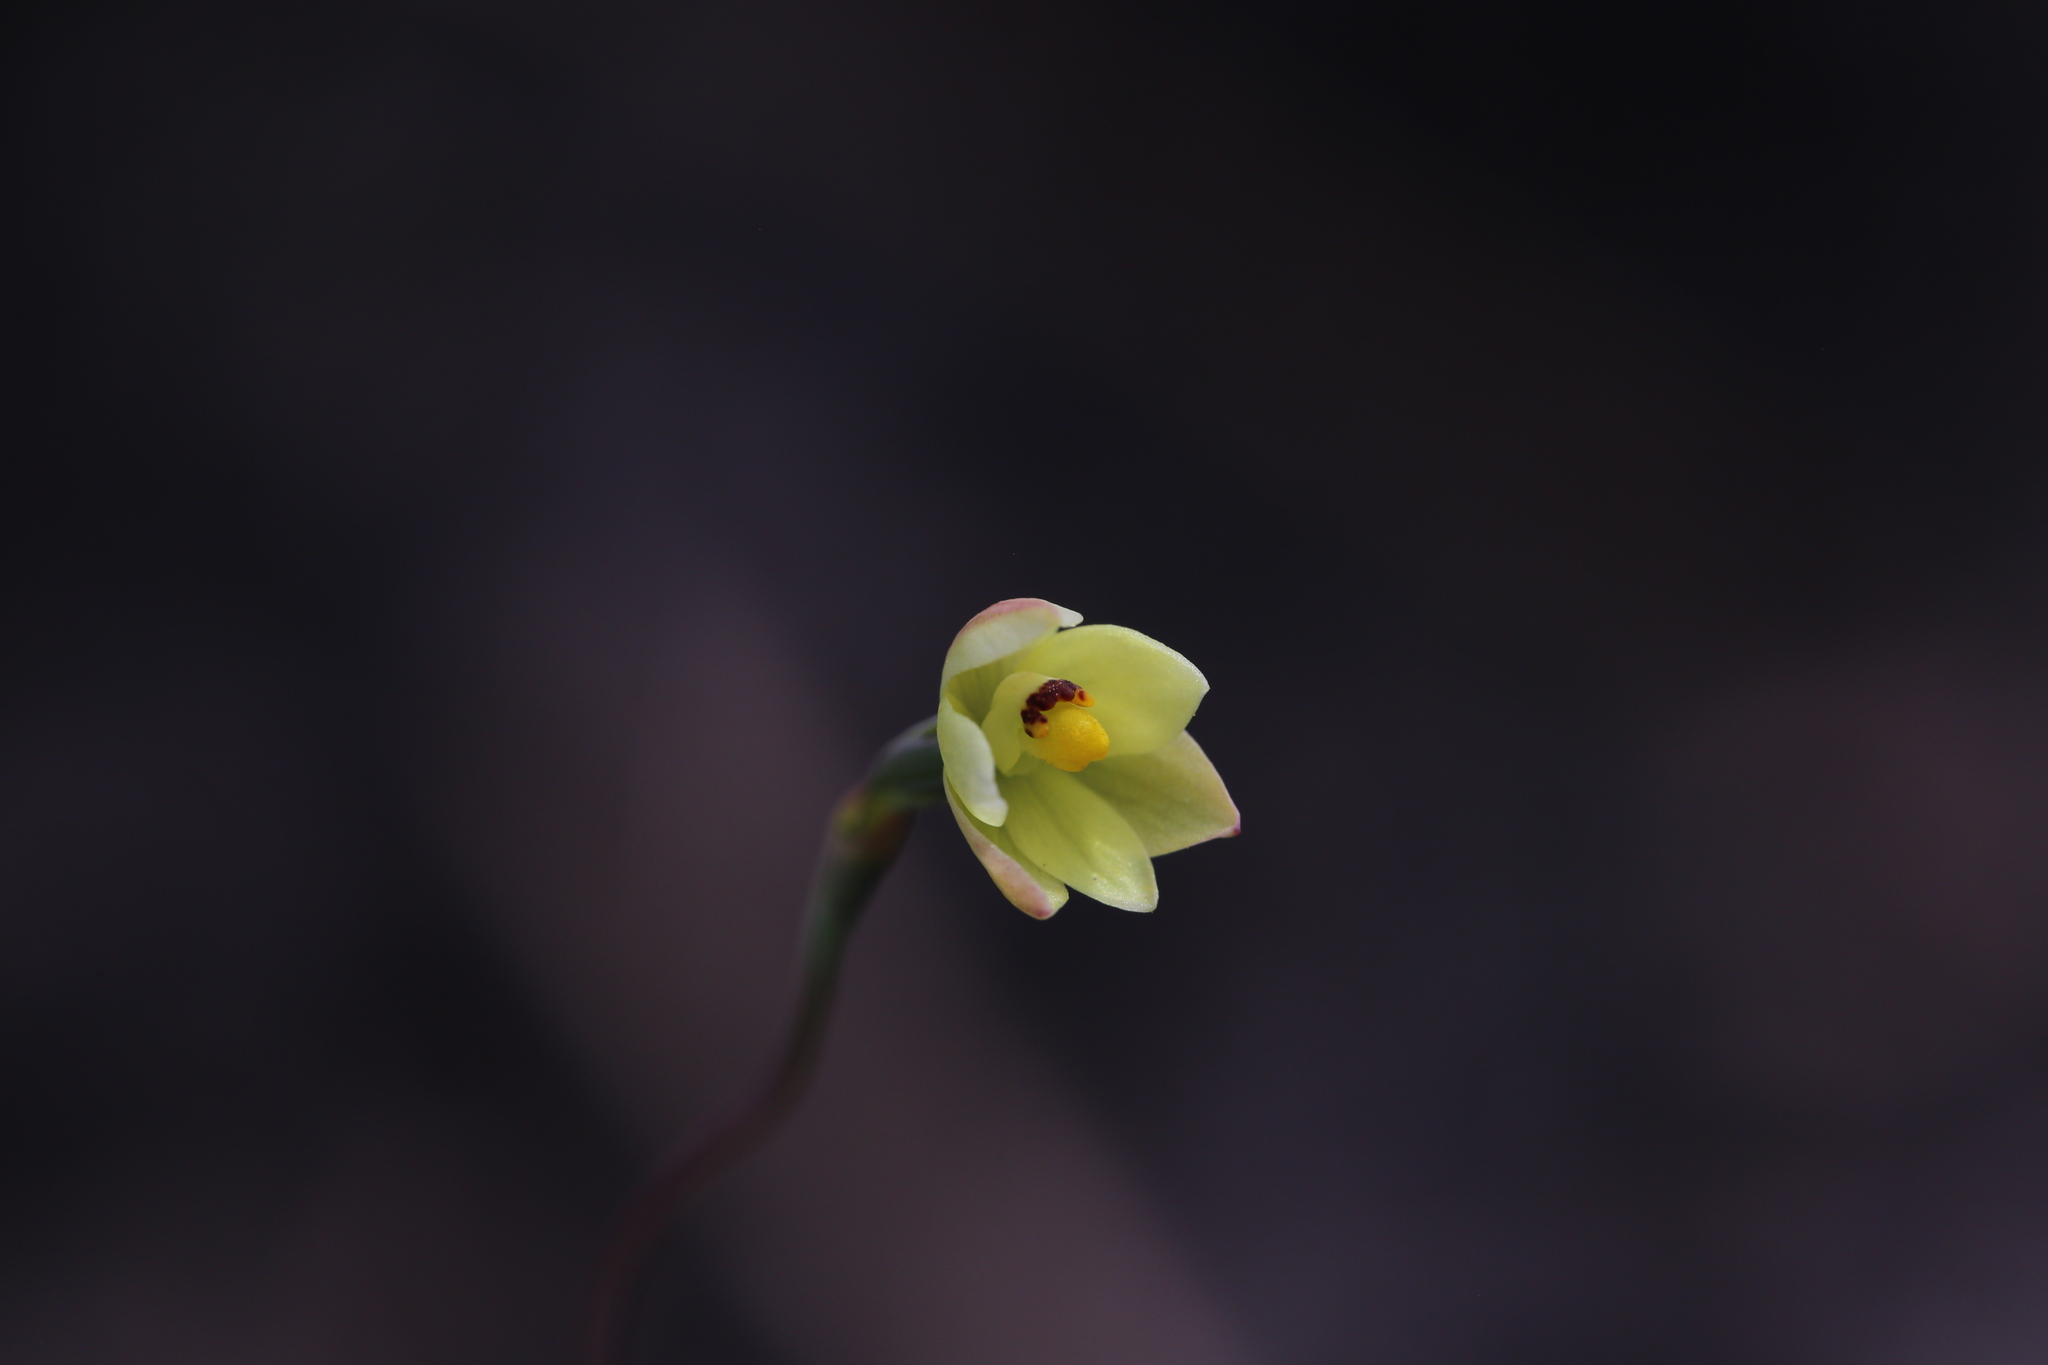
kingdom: Plantae
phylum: Tracheophyta
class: Liliopsida
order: Asparagales
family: Orchidaceae
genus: Thelymitra
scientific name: Thelymitra flexuosa
